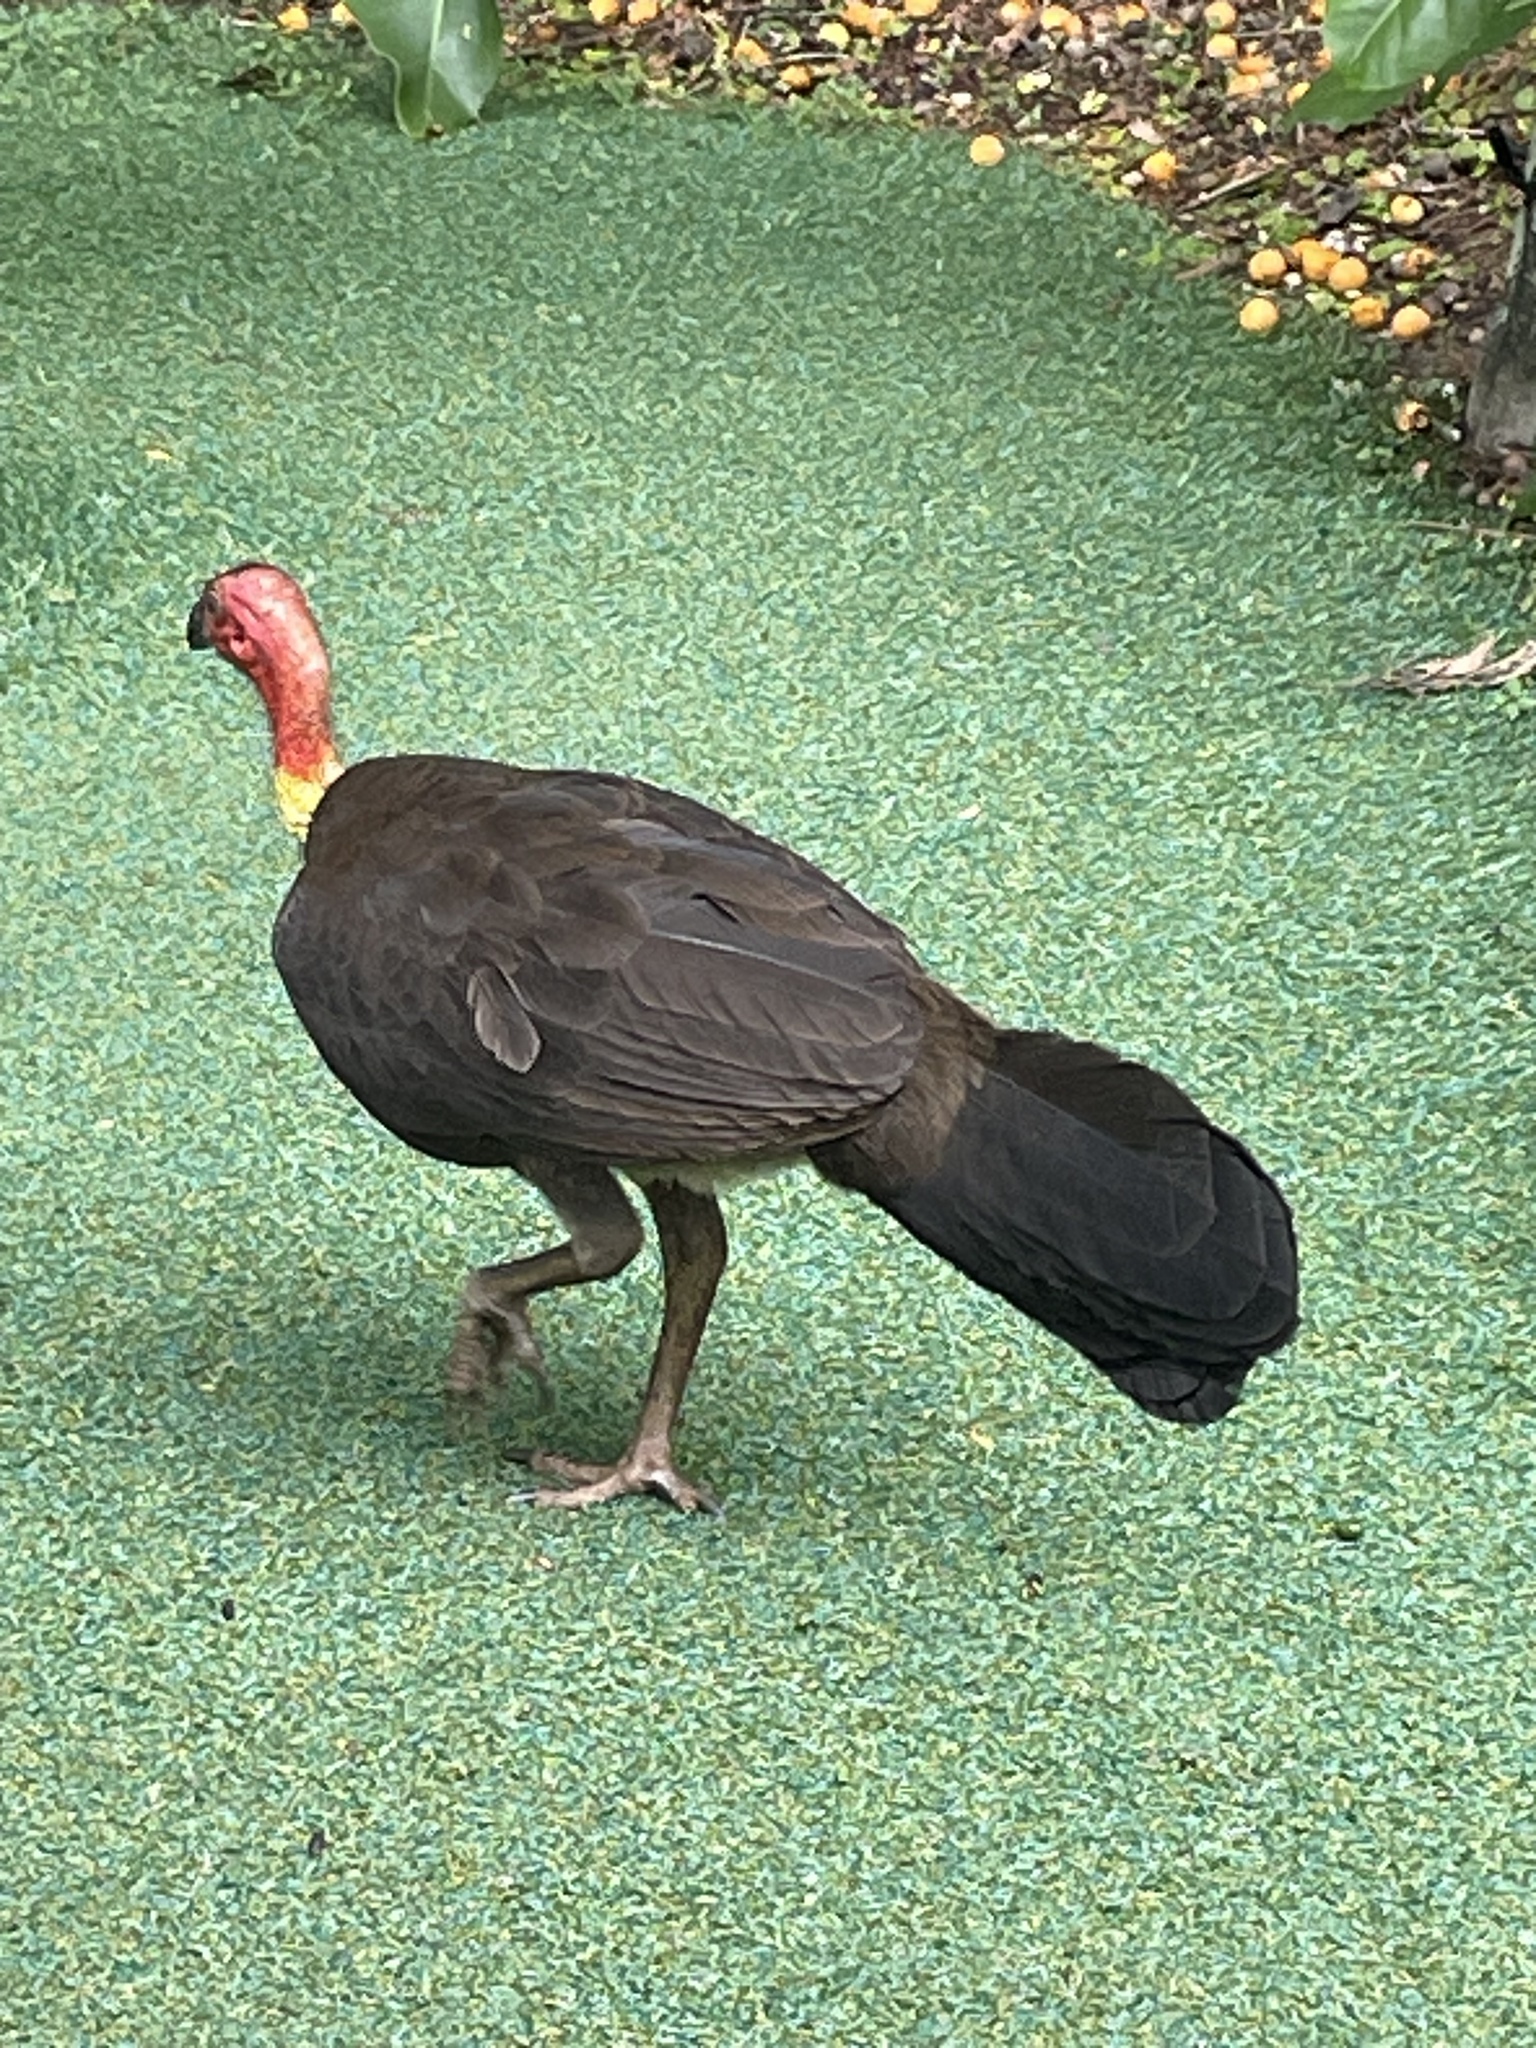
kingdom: Animalia
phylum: Chordata
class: Aves
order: Galliformes
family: Megapodiidae
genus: Alectura
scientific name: Alectura lathami
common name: Australian brushturkey
